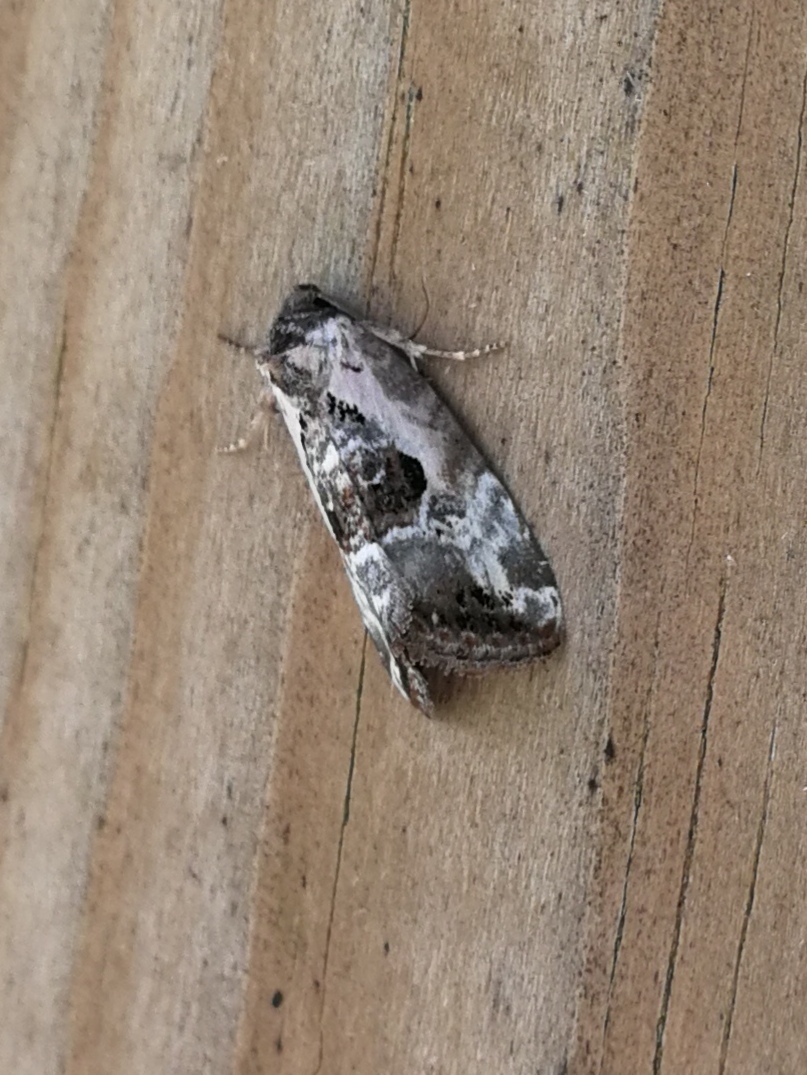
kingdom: Animalia
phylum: Arthropoda
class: Insecta
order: Lepidoptera
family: Noctuidae
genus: Elaphria
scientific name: Elaphria venustula
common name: Rosy marbled
